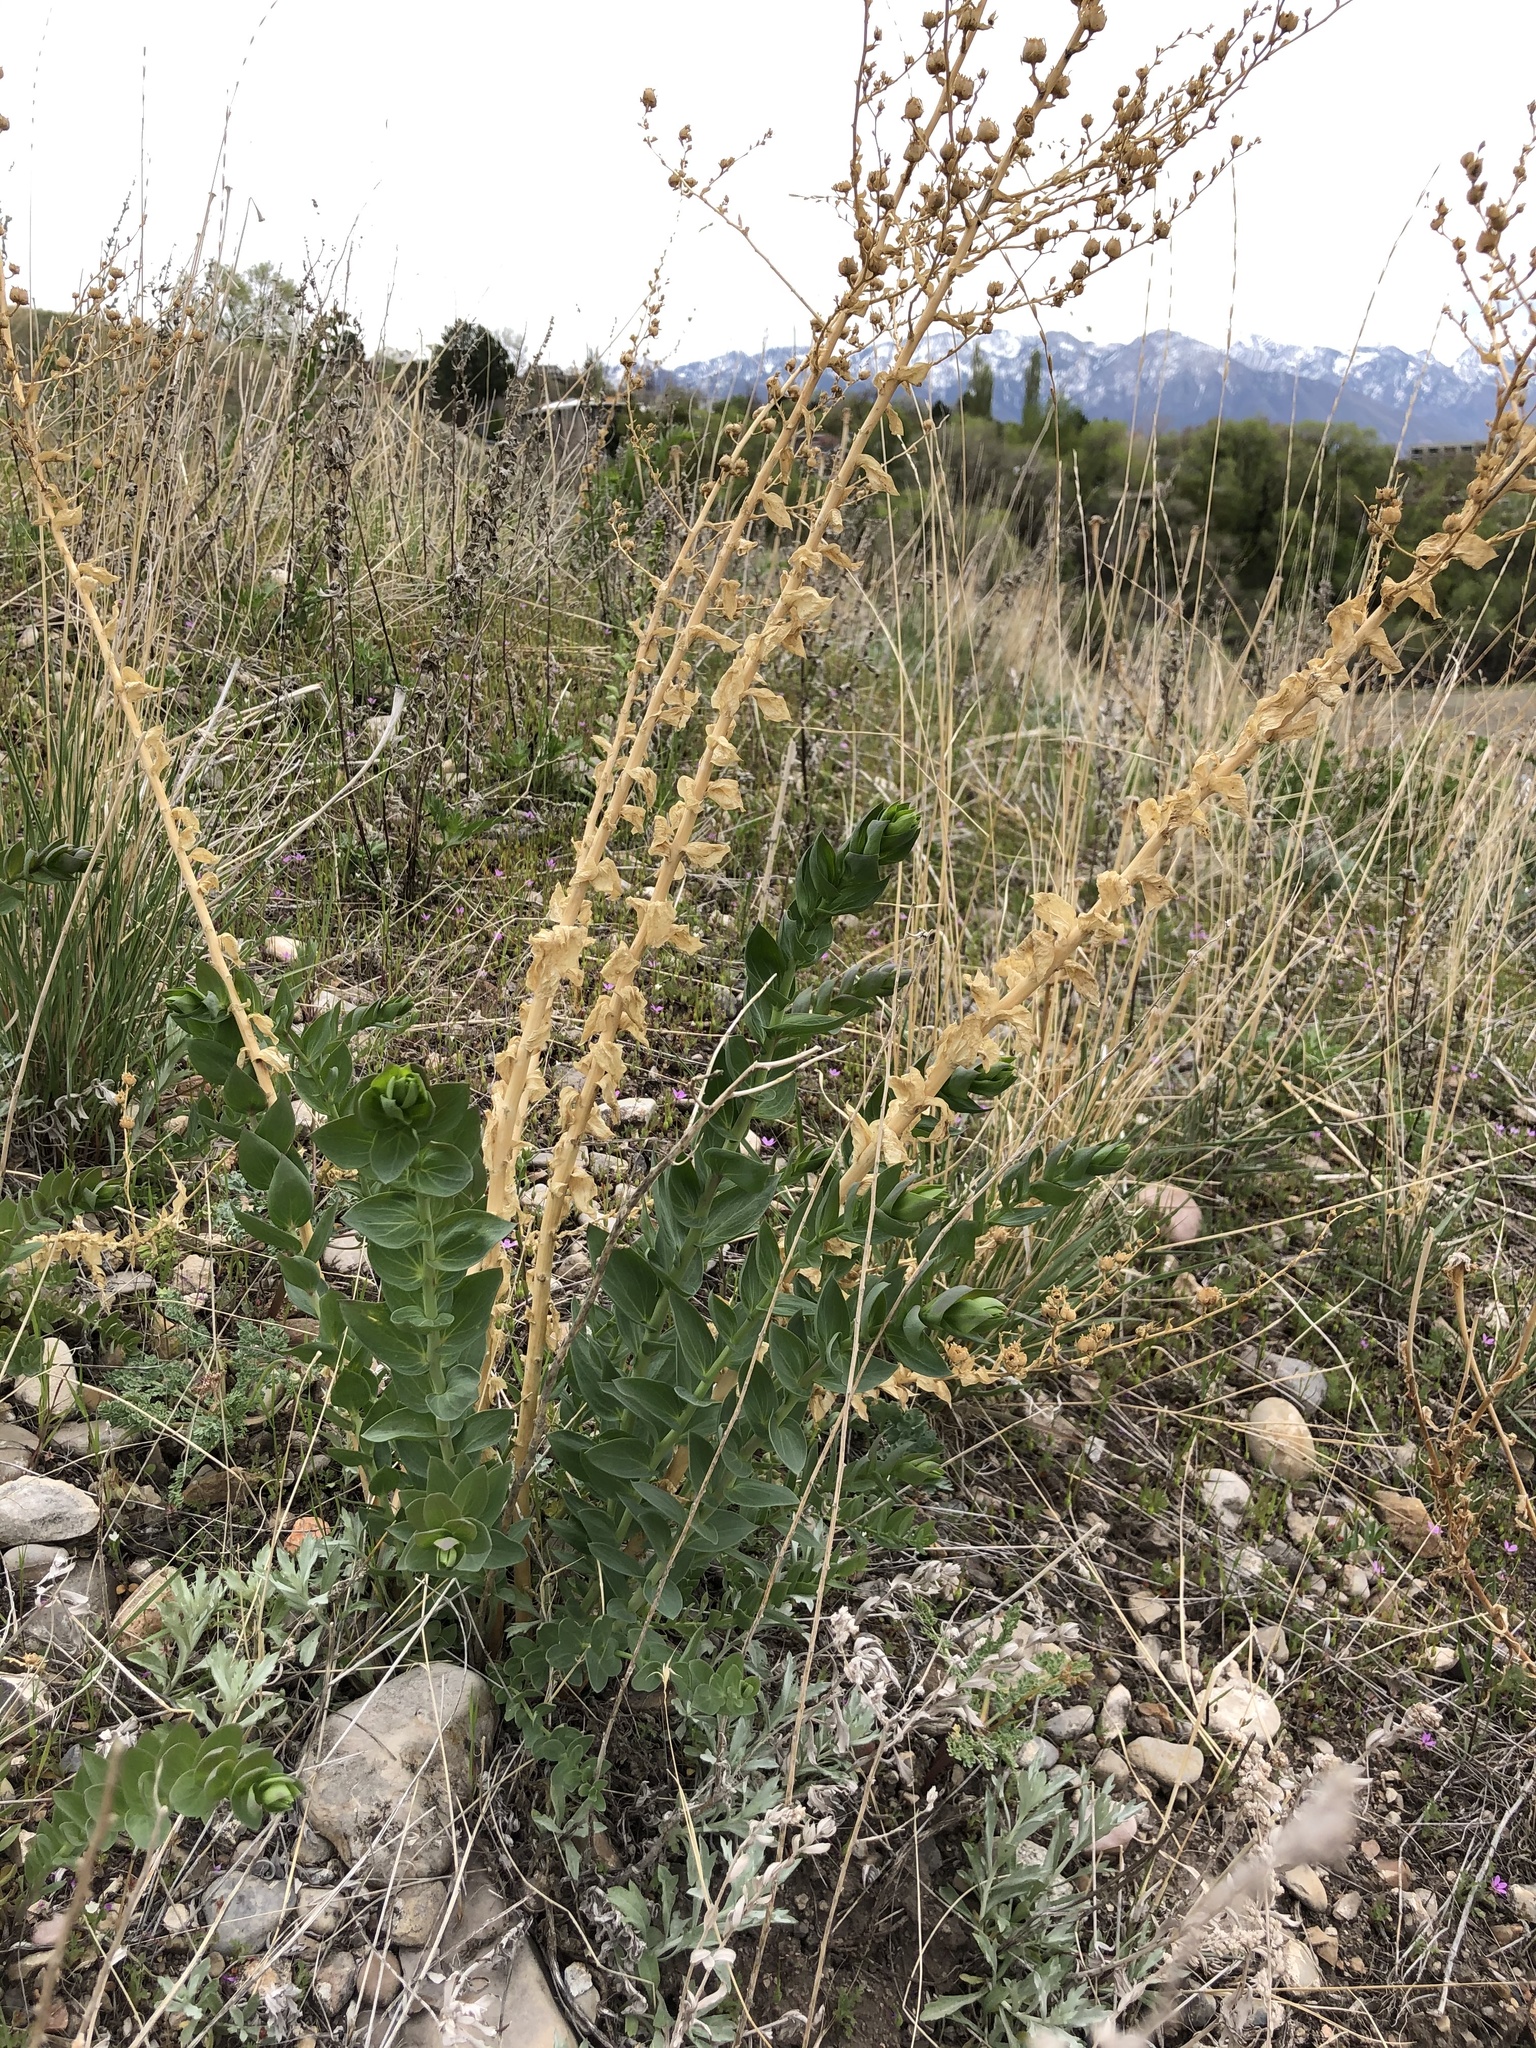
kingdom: Plantae
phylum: Tracheophyta
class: Magnoliopsida
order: Lamiales
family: Plantaginaceae
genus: Linaria
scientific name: Linaria dalmatica
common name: Dalmatian toadflax
